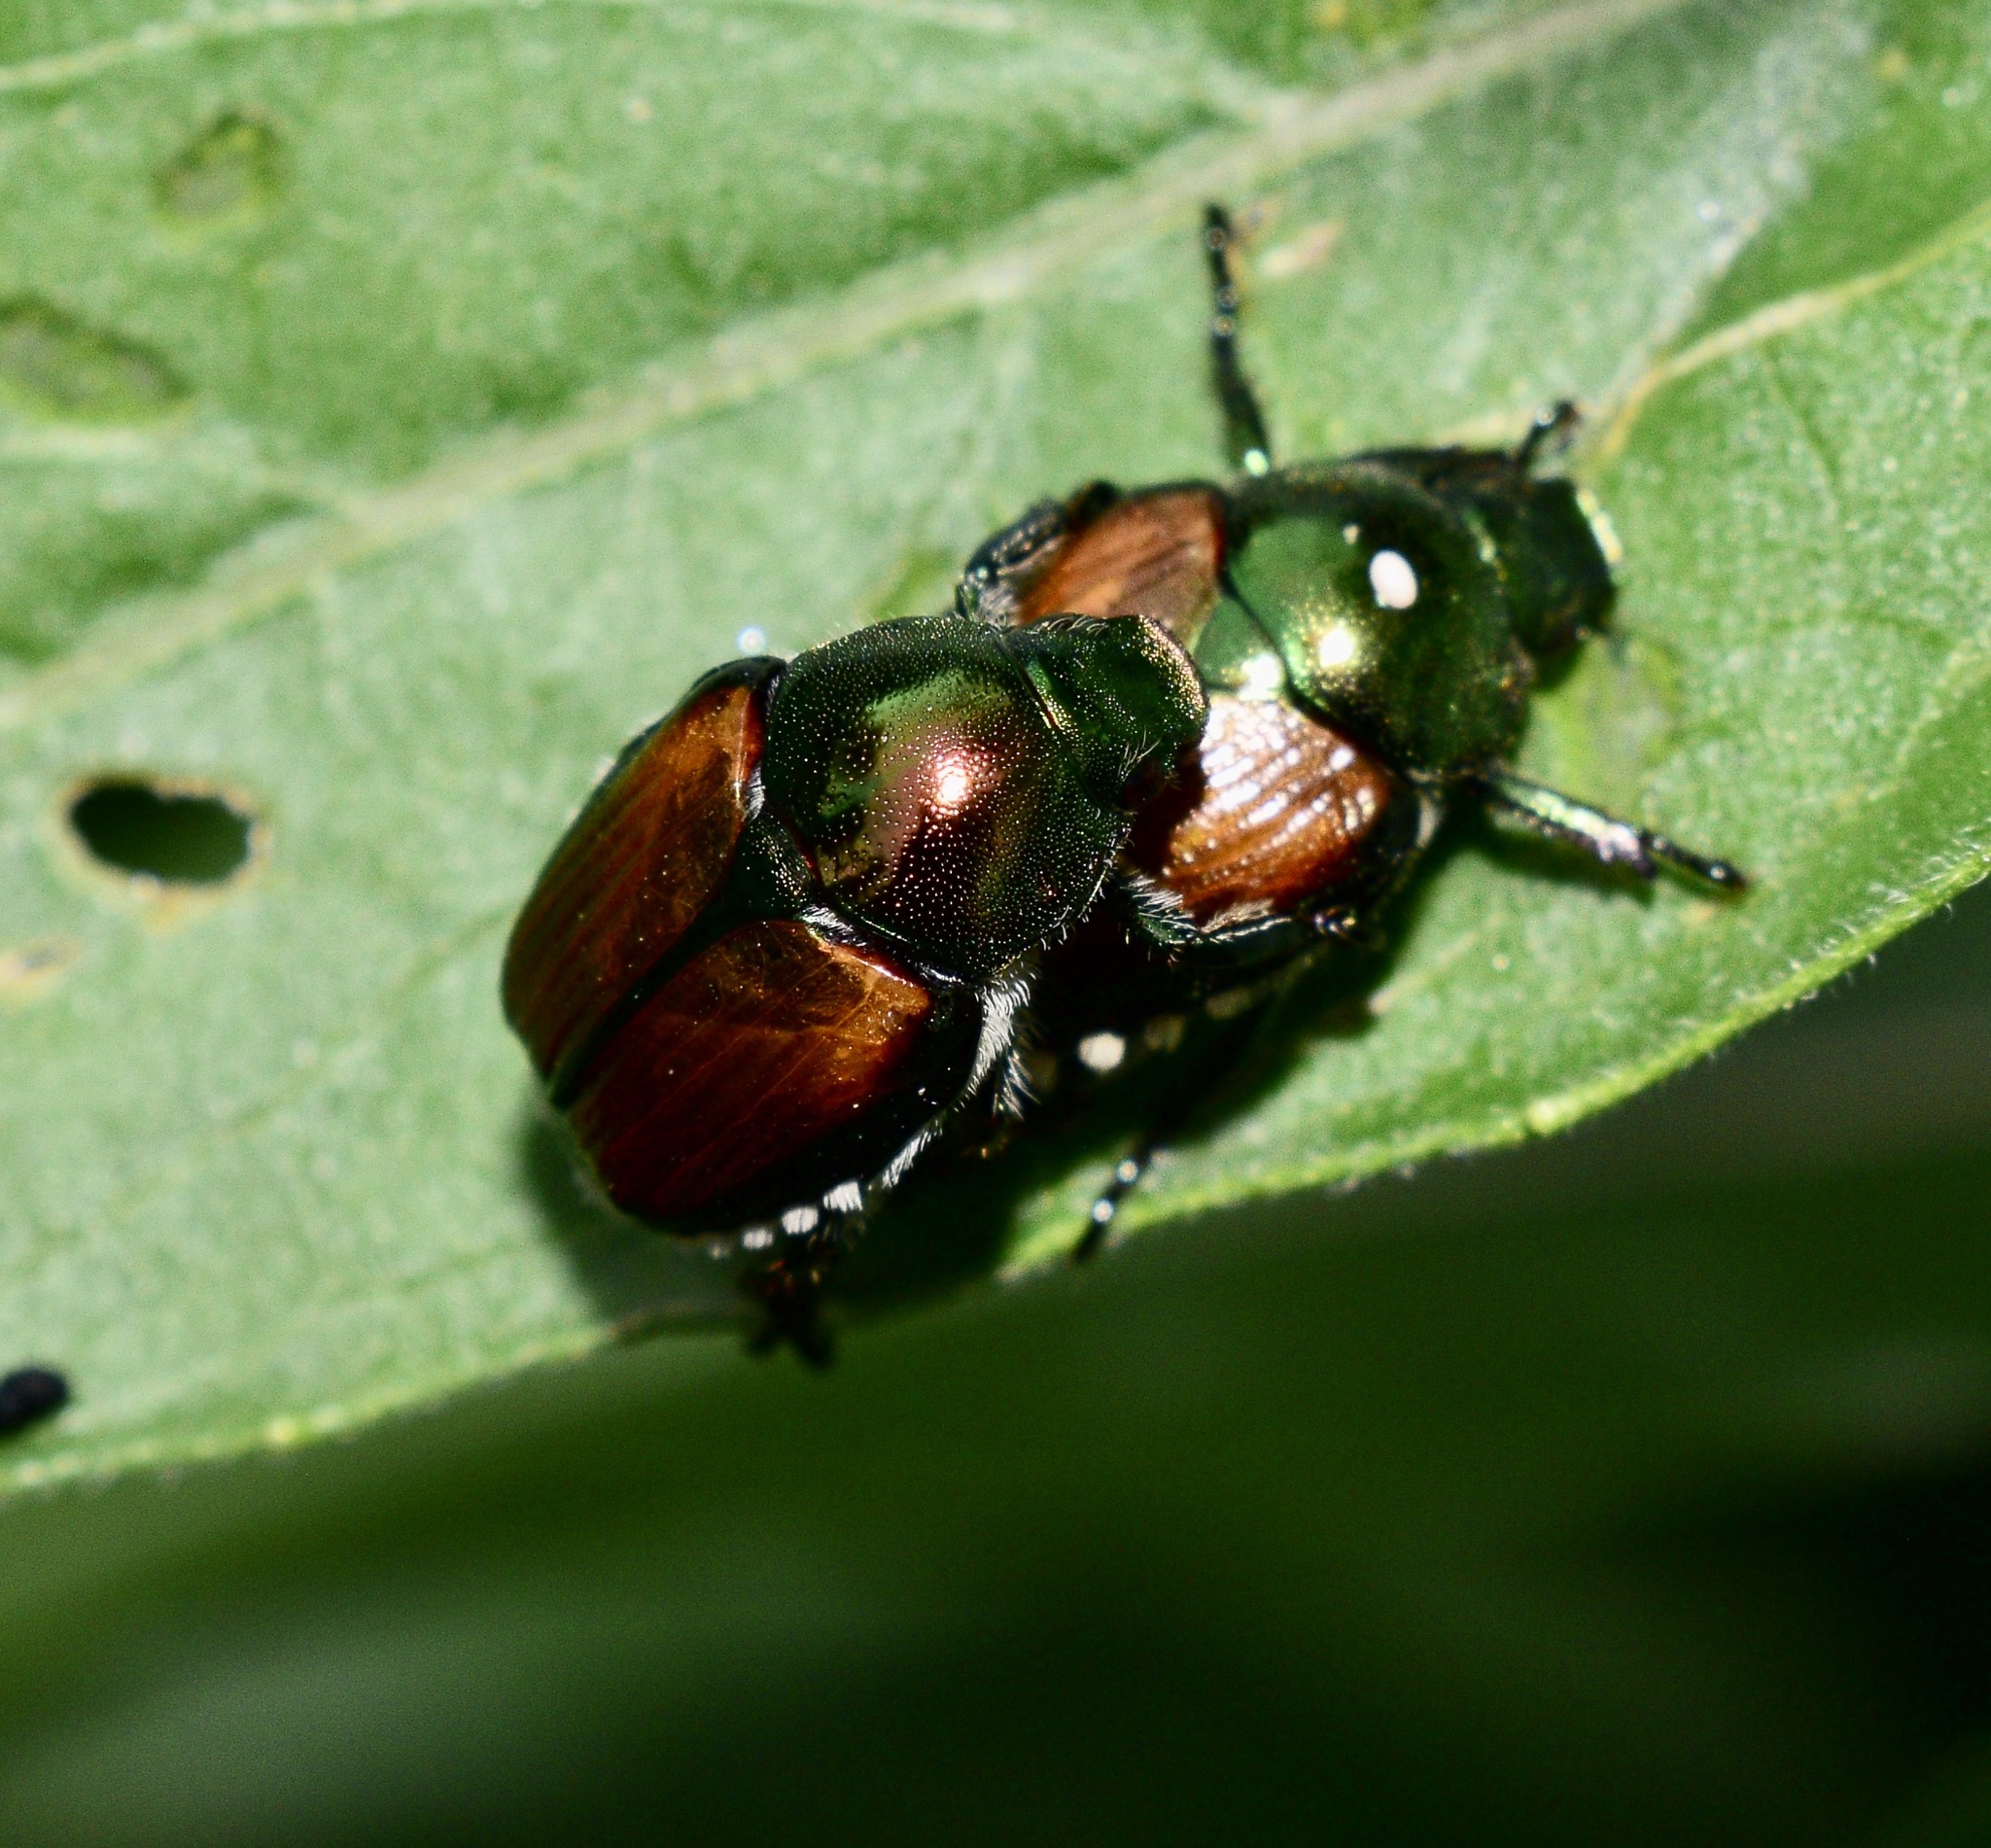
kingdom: Animalia
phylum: Arthropoda
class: Insecta
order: Coleoptera
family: Scarabaeidae
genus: Popillia
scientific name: Popillia japonica
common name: Japanese beetle
